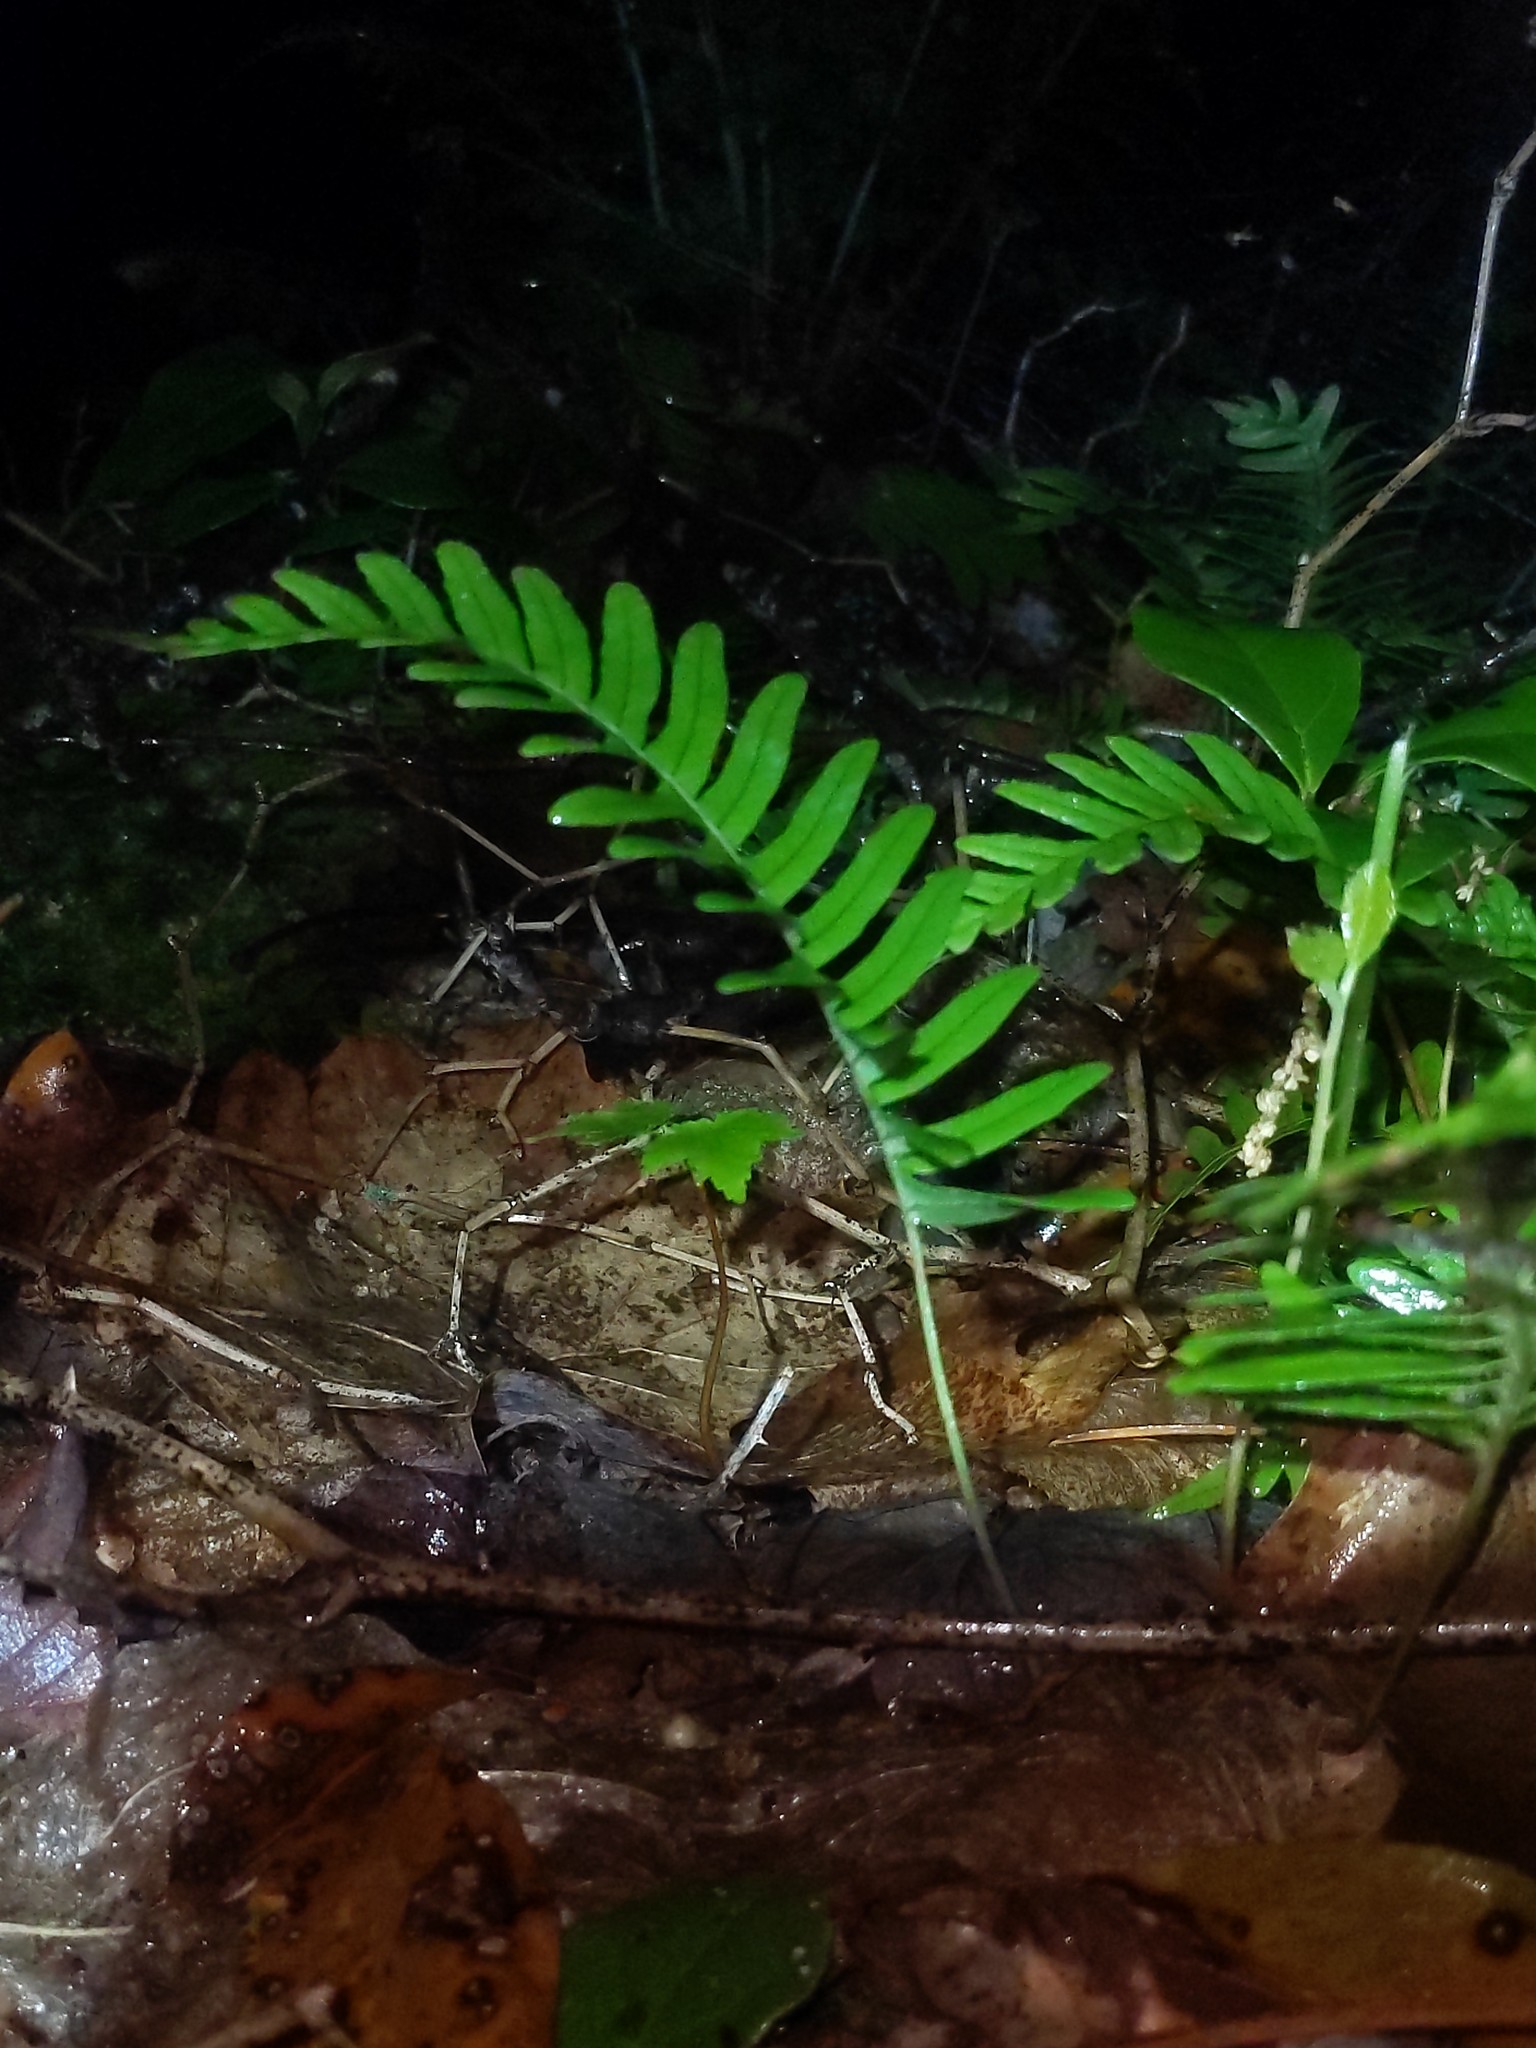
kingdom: Plantae
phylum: Tracheophyta
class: Polypodiopsida
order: Polypodiales
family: Polypodiaceae
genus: Polypodium
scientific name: Polypodium virginianum
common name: American wall fern
